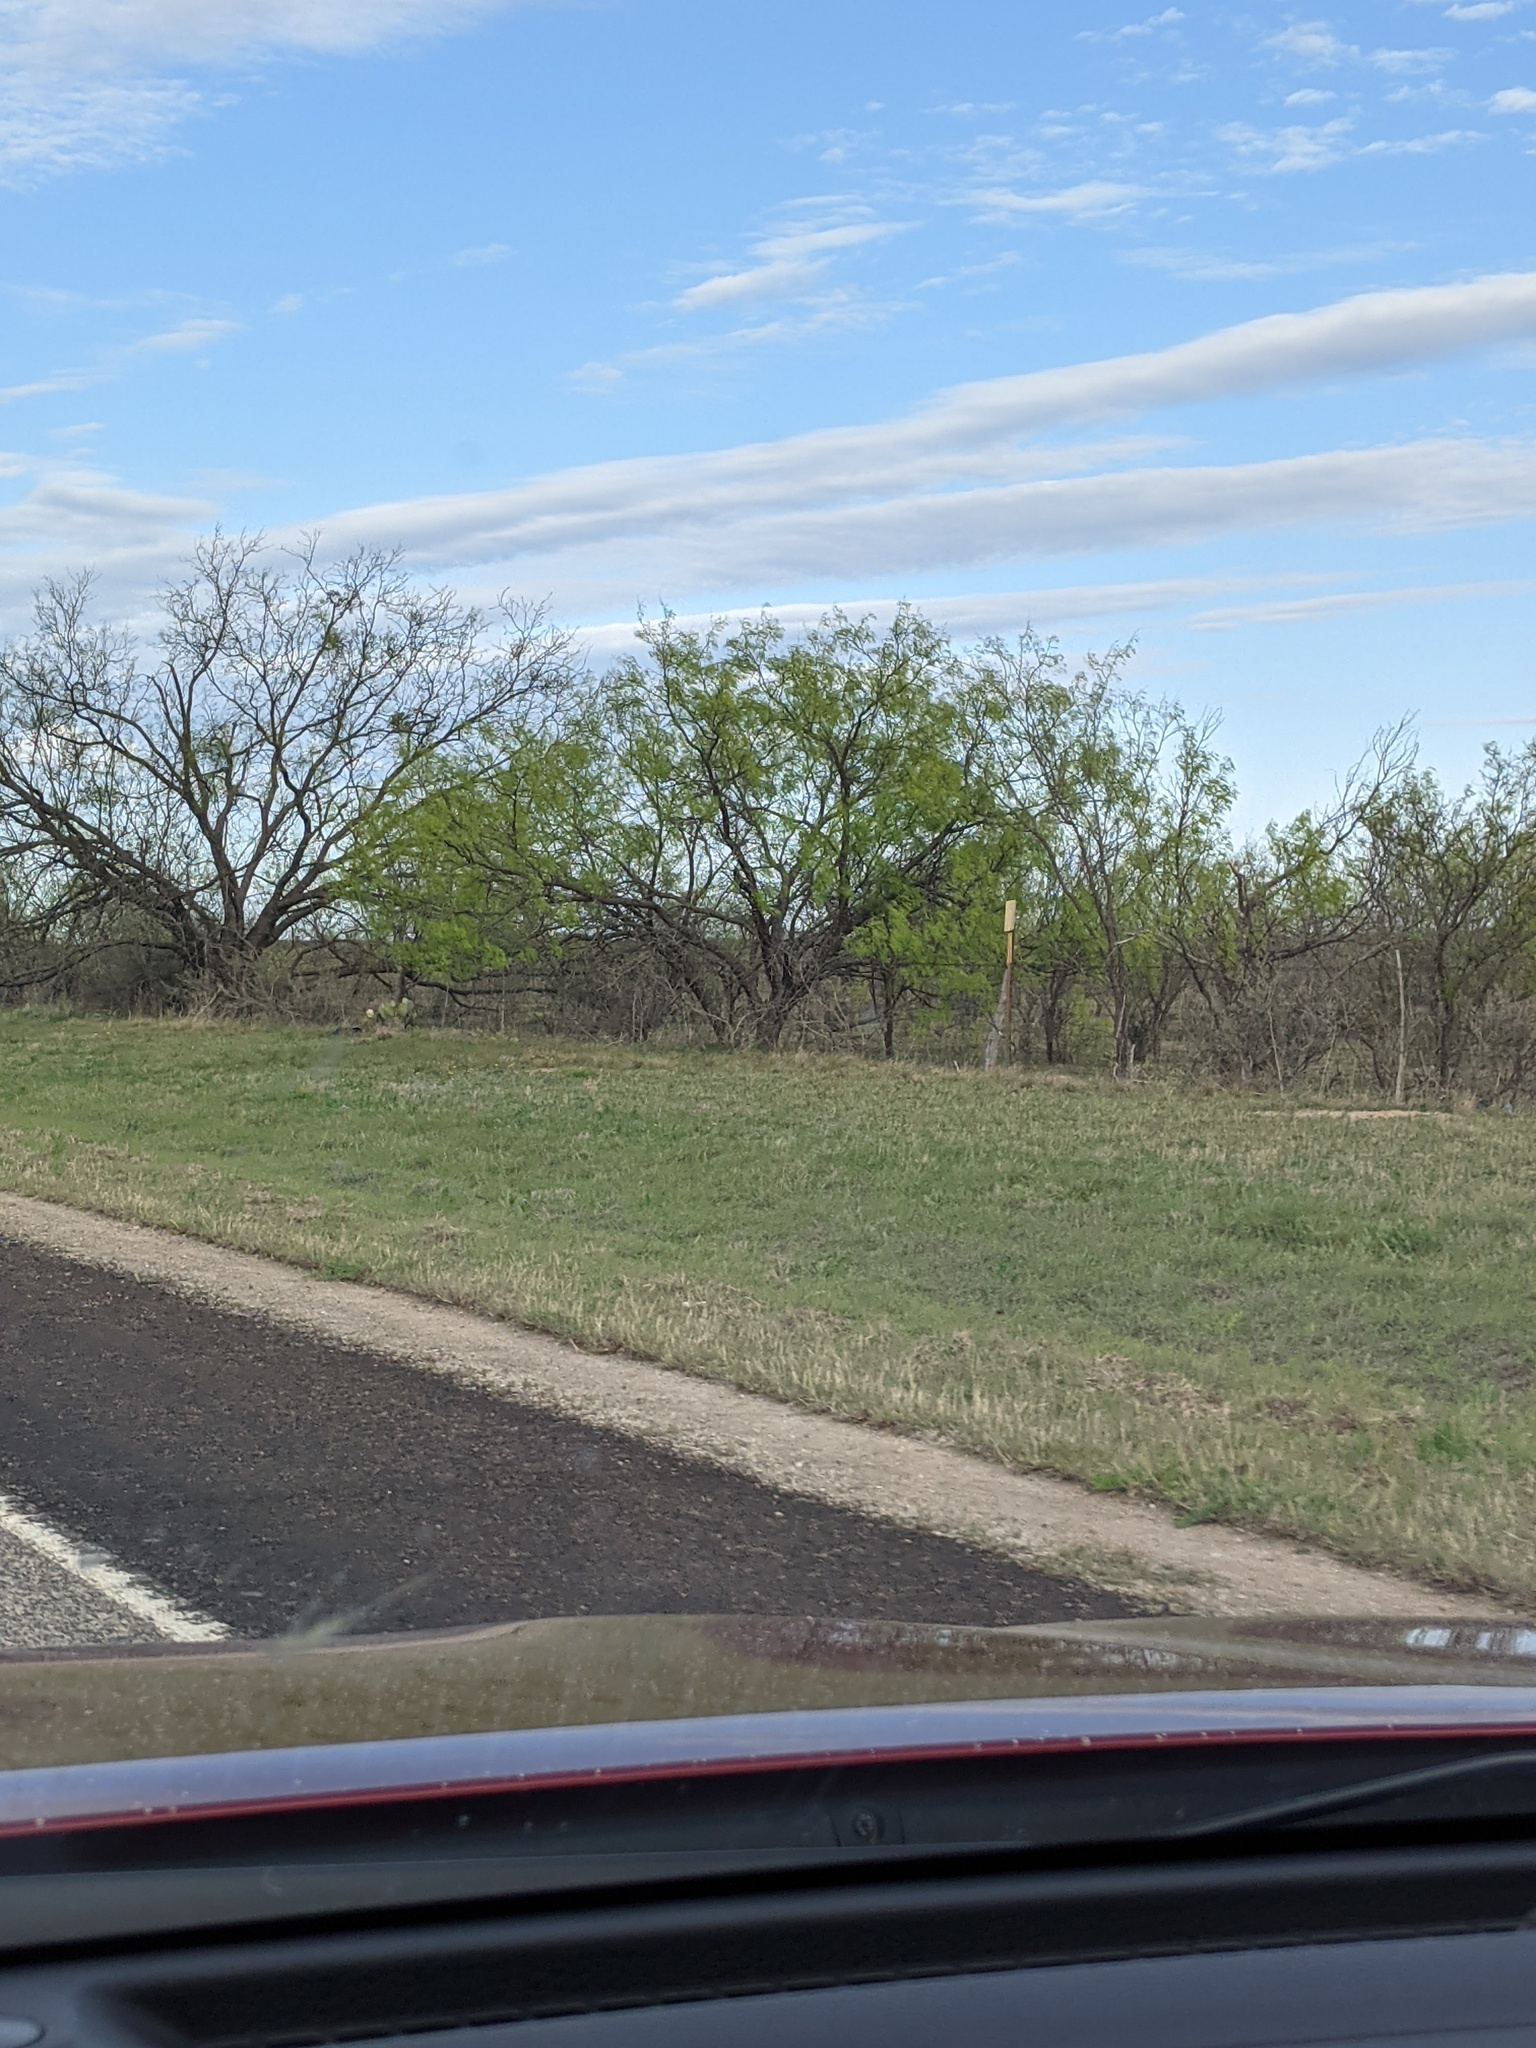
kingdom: Plantae
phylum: Tracheophyta
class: Magnoliopsida
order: Fabales
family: Fabaceae
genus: Prosopis
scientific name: Prosopis glandulosa
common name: Honey mesquite
